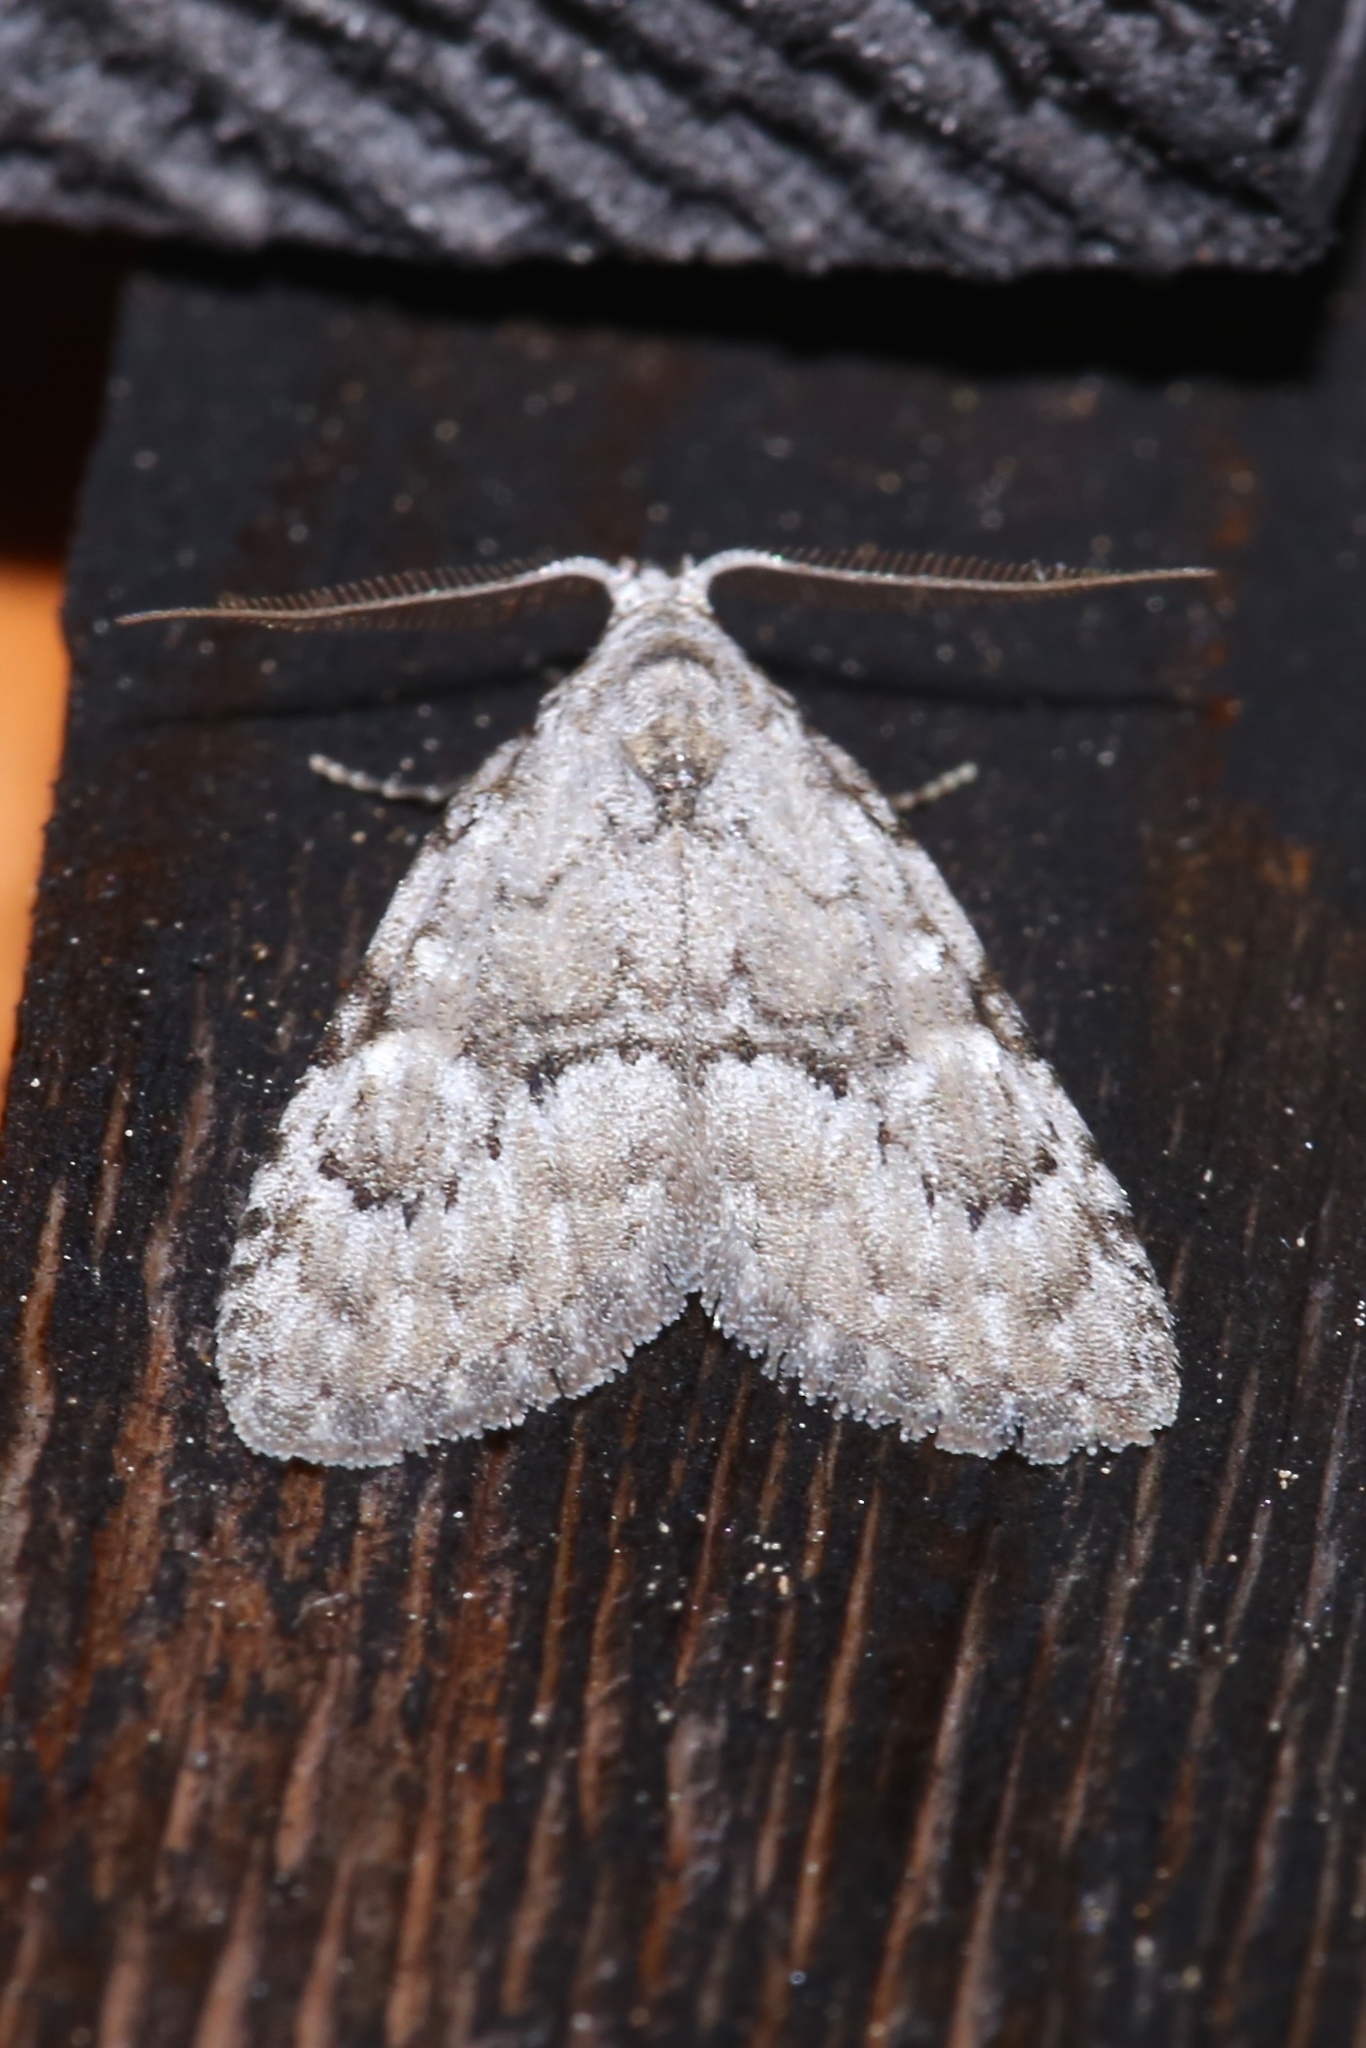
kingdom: Animalia
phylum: Arthropoda
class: Insecta
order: Lepidoptera
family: Nolidae
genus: Meganola
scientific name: Meganola minuscula
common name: Confused meganola moth
